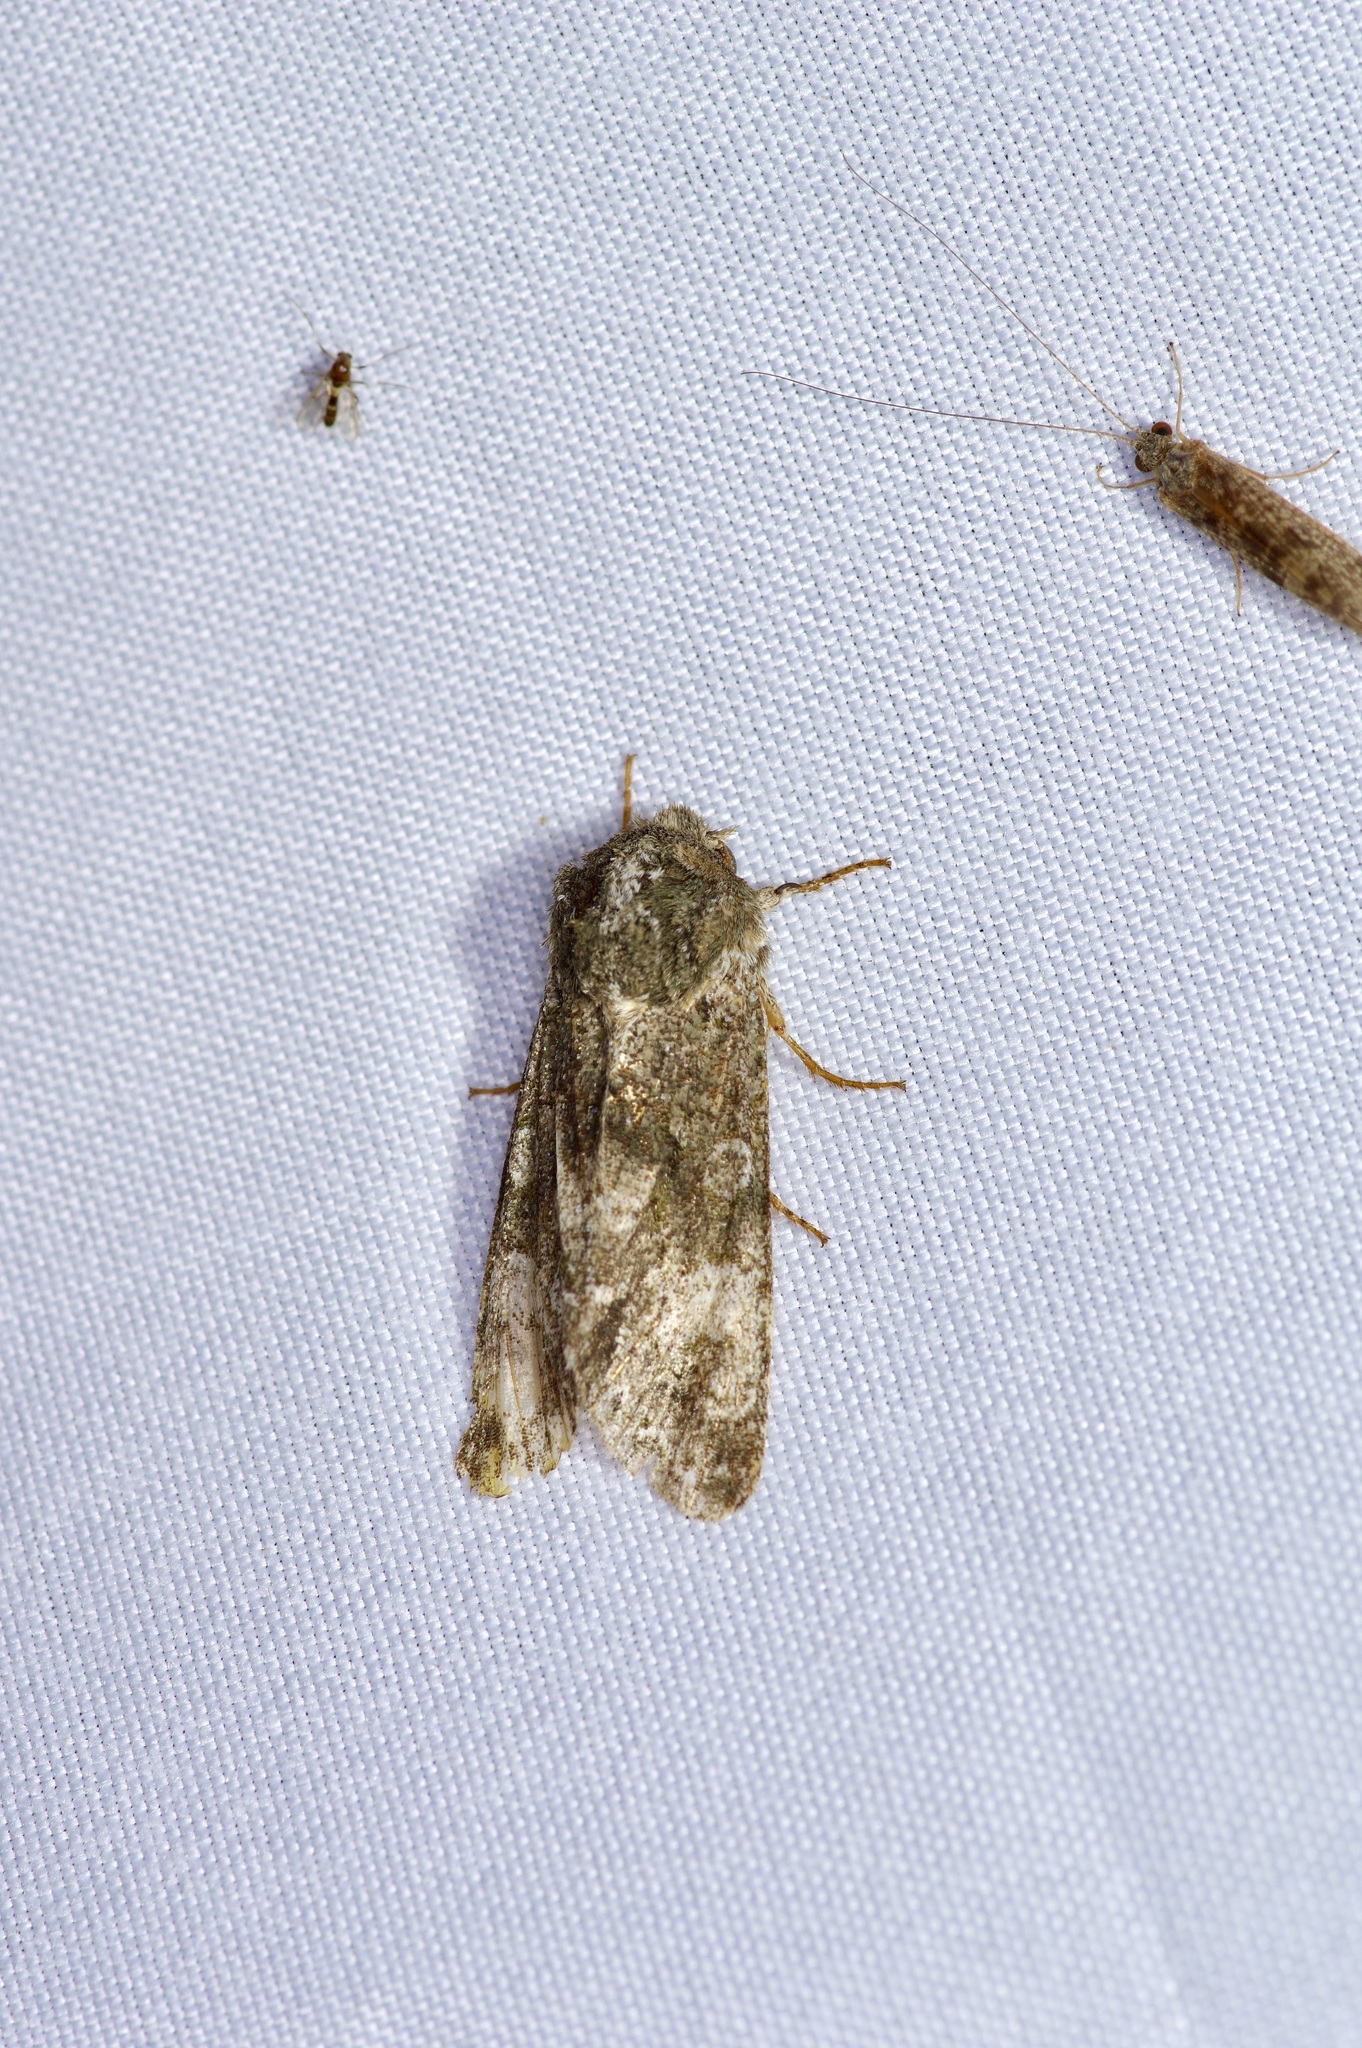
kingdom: Animalia
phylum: Arthropoda
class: Insecta
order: Lepidoptera
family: Noctuidae
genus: Psaphida
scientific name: Psaphida grotei
